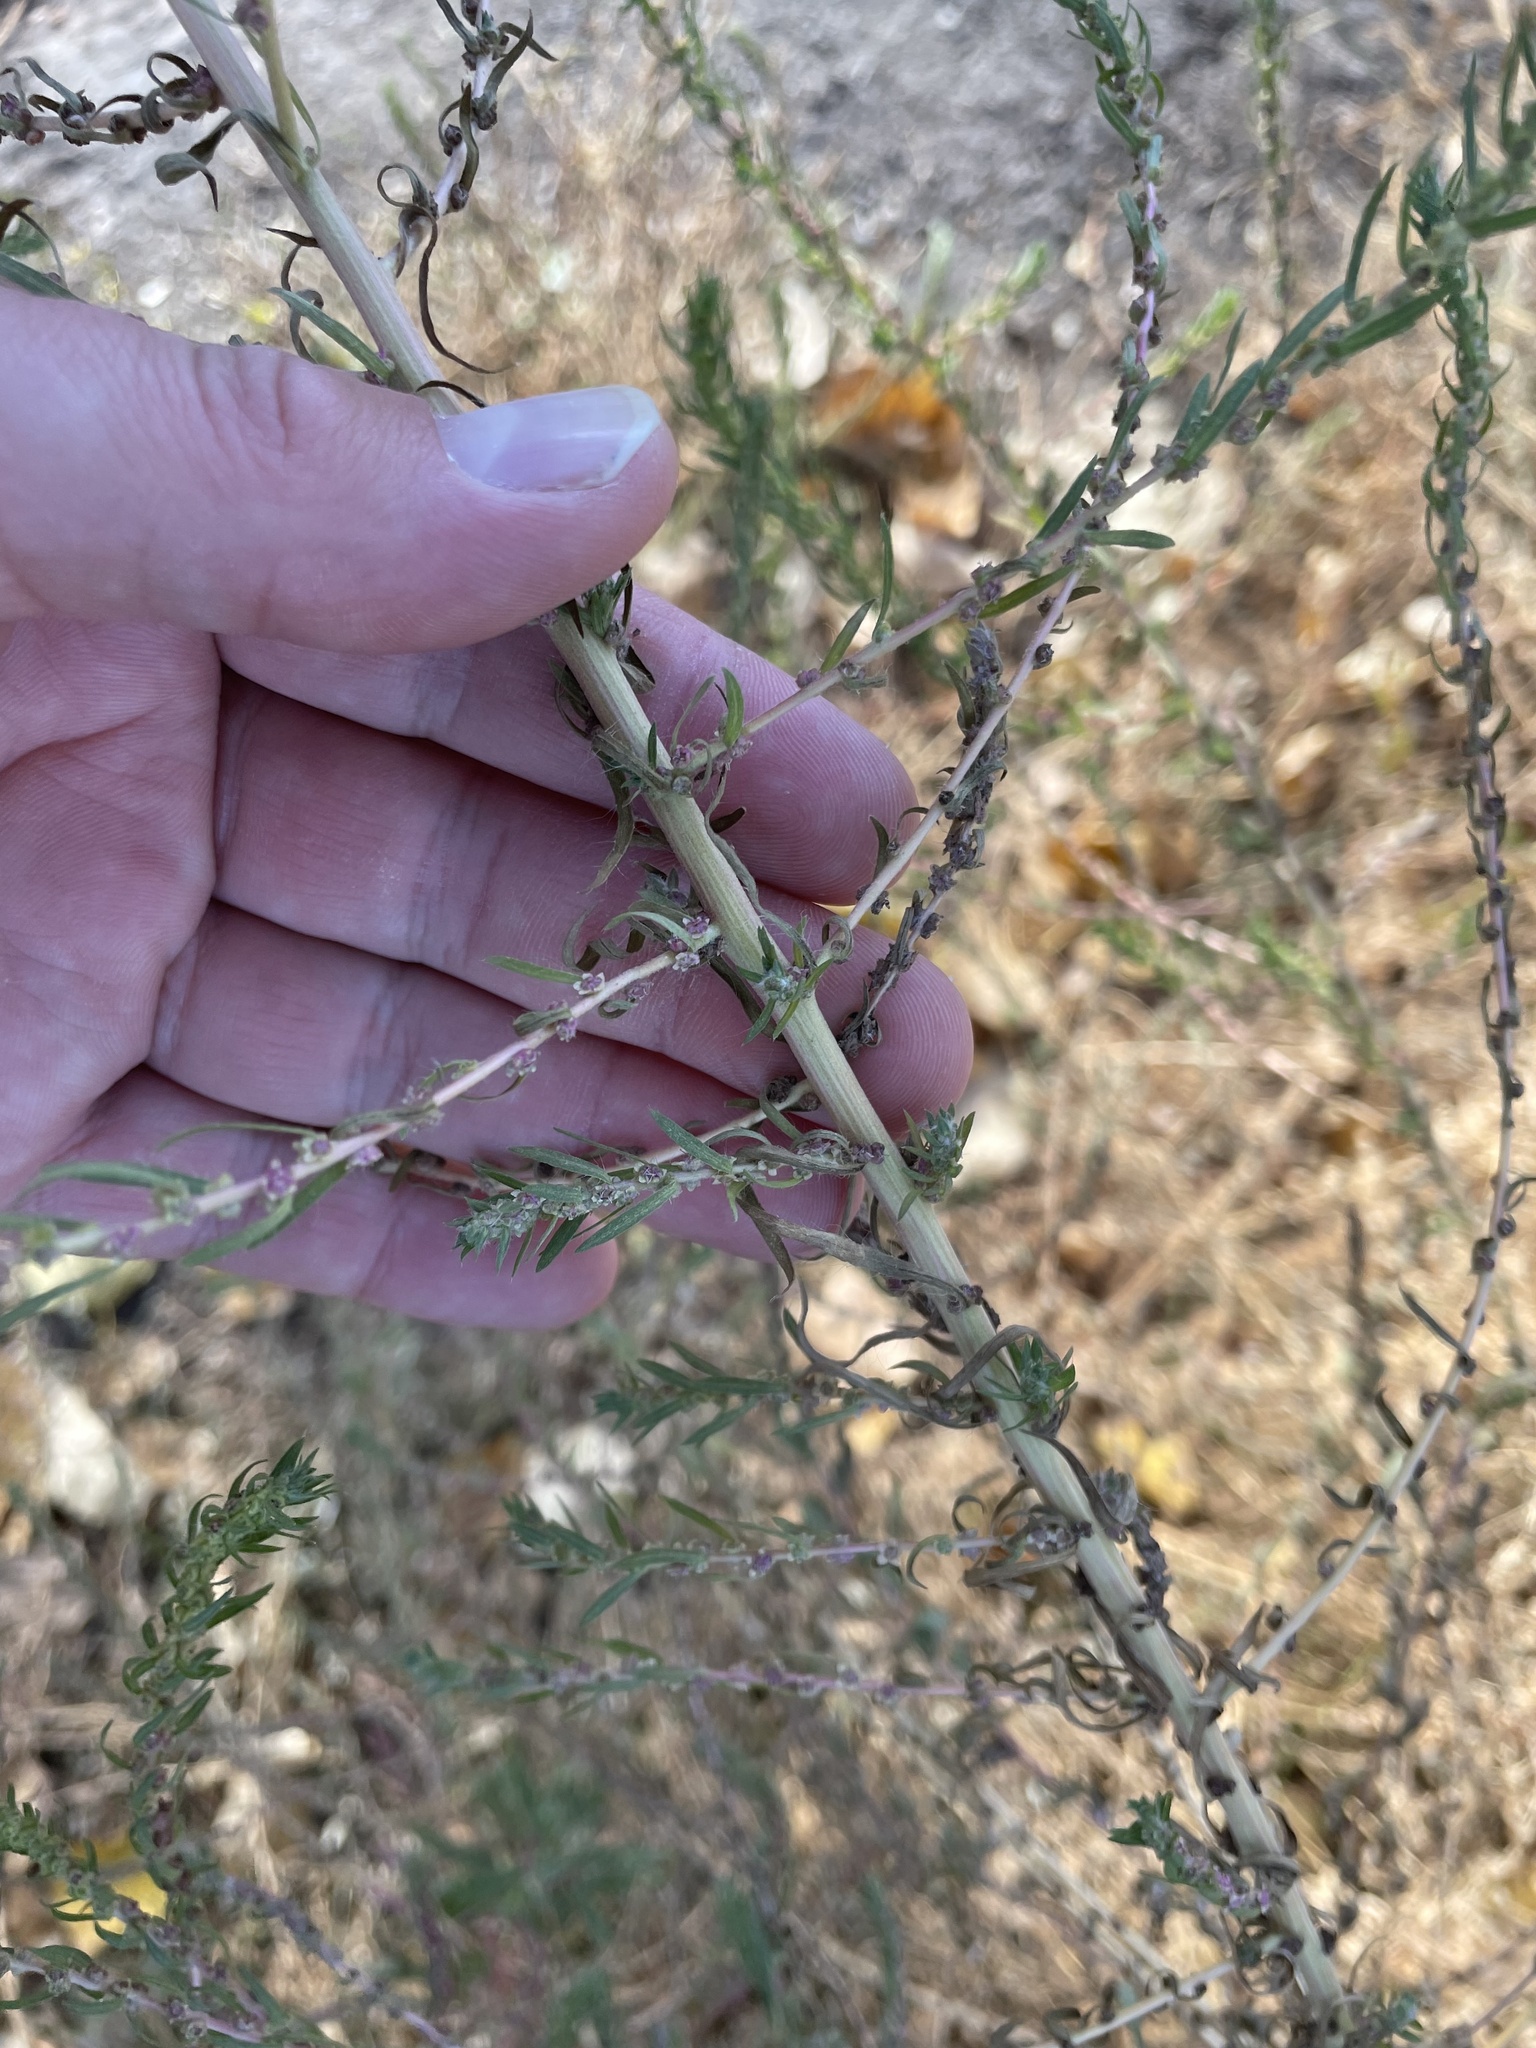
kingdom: Plantae
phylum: Tracheophyta
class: Magnoliopsida
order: Caryophyllales
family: Amaranthaceae
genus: Bassia
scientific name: Bassia scoparia
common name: Belvedere
